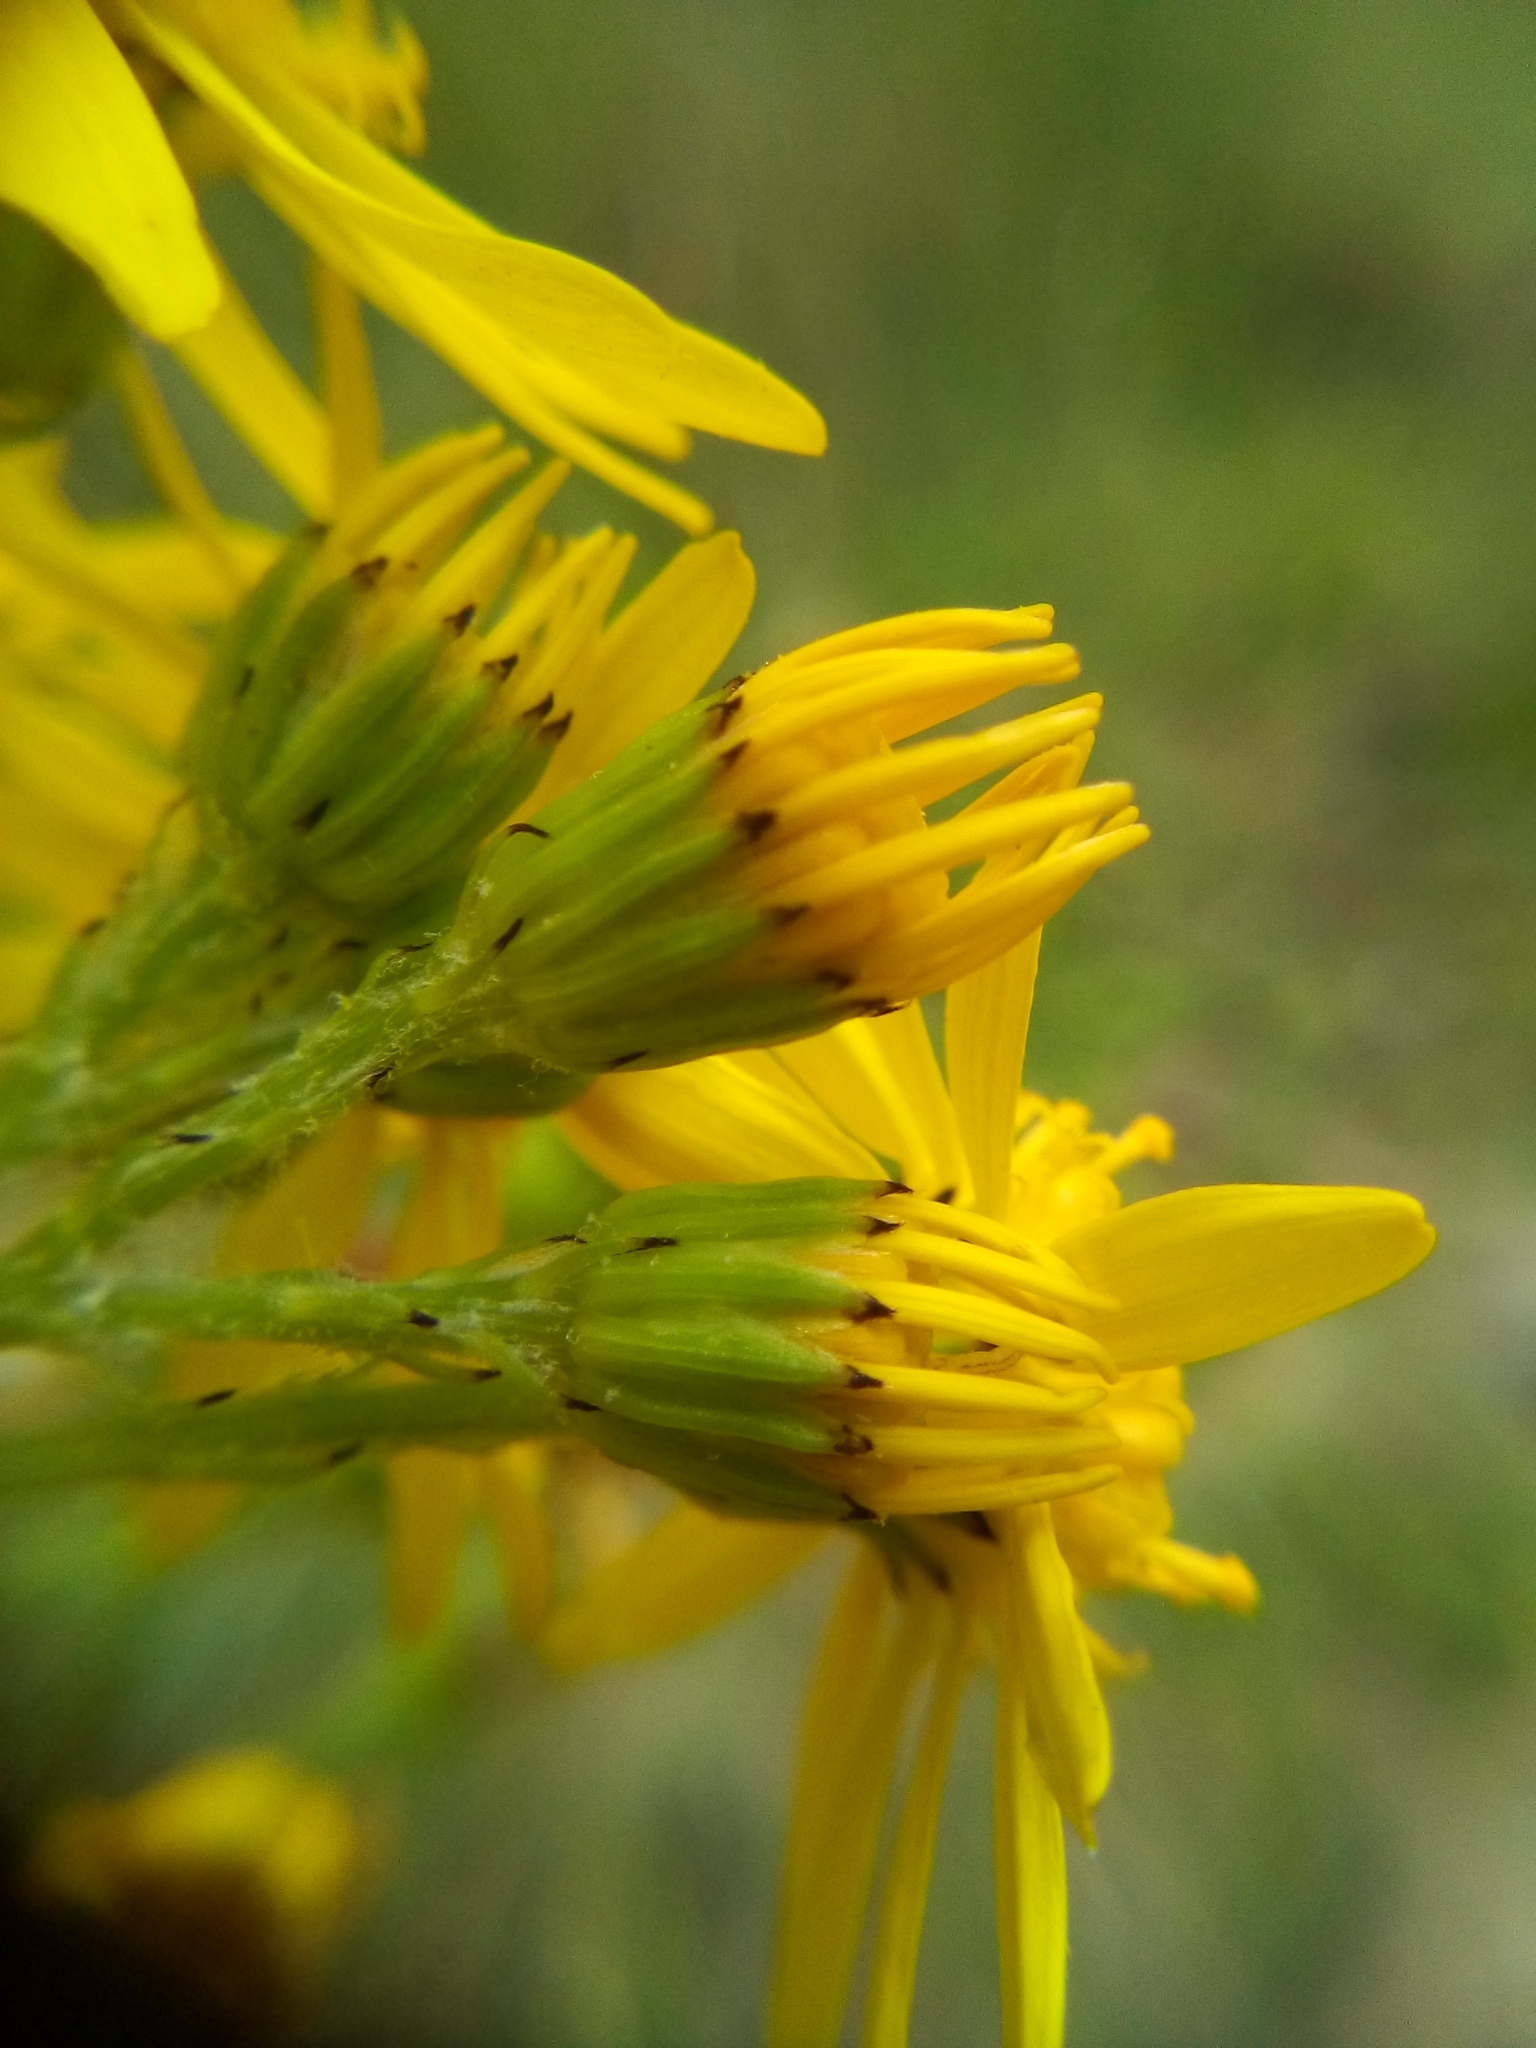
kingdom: Plantae
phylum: Tracheophyta
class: Magnoliopsida
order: Asterales
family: Asteraceae
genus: Jacobaea
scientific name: Jacobaea vulgaris
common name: Stinking willie
